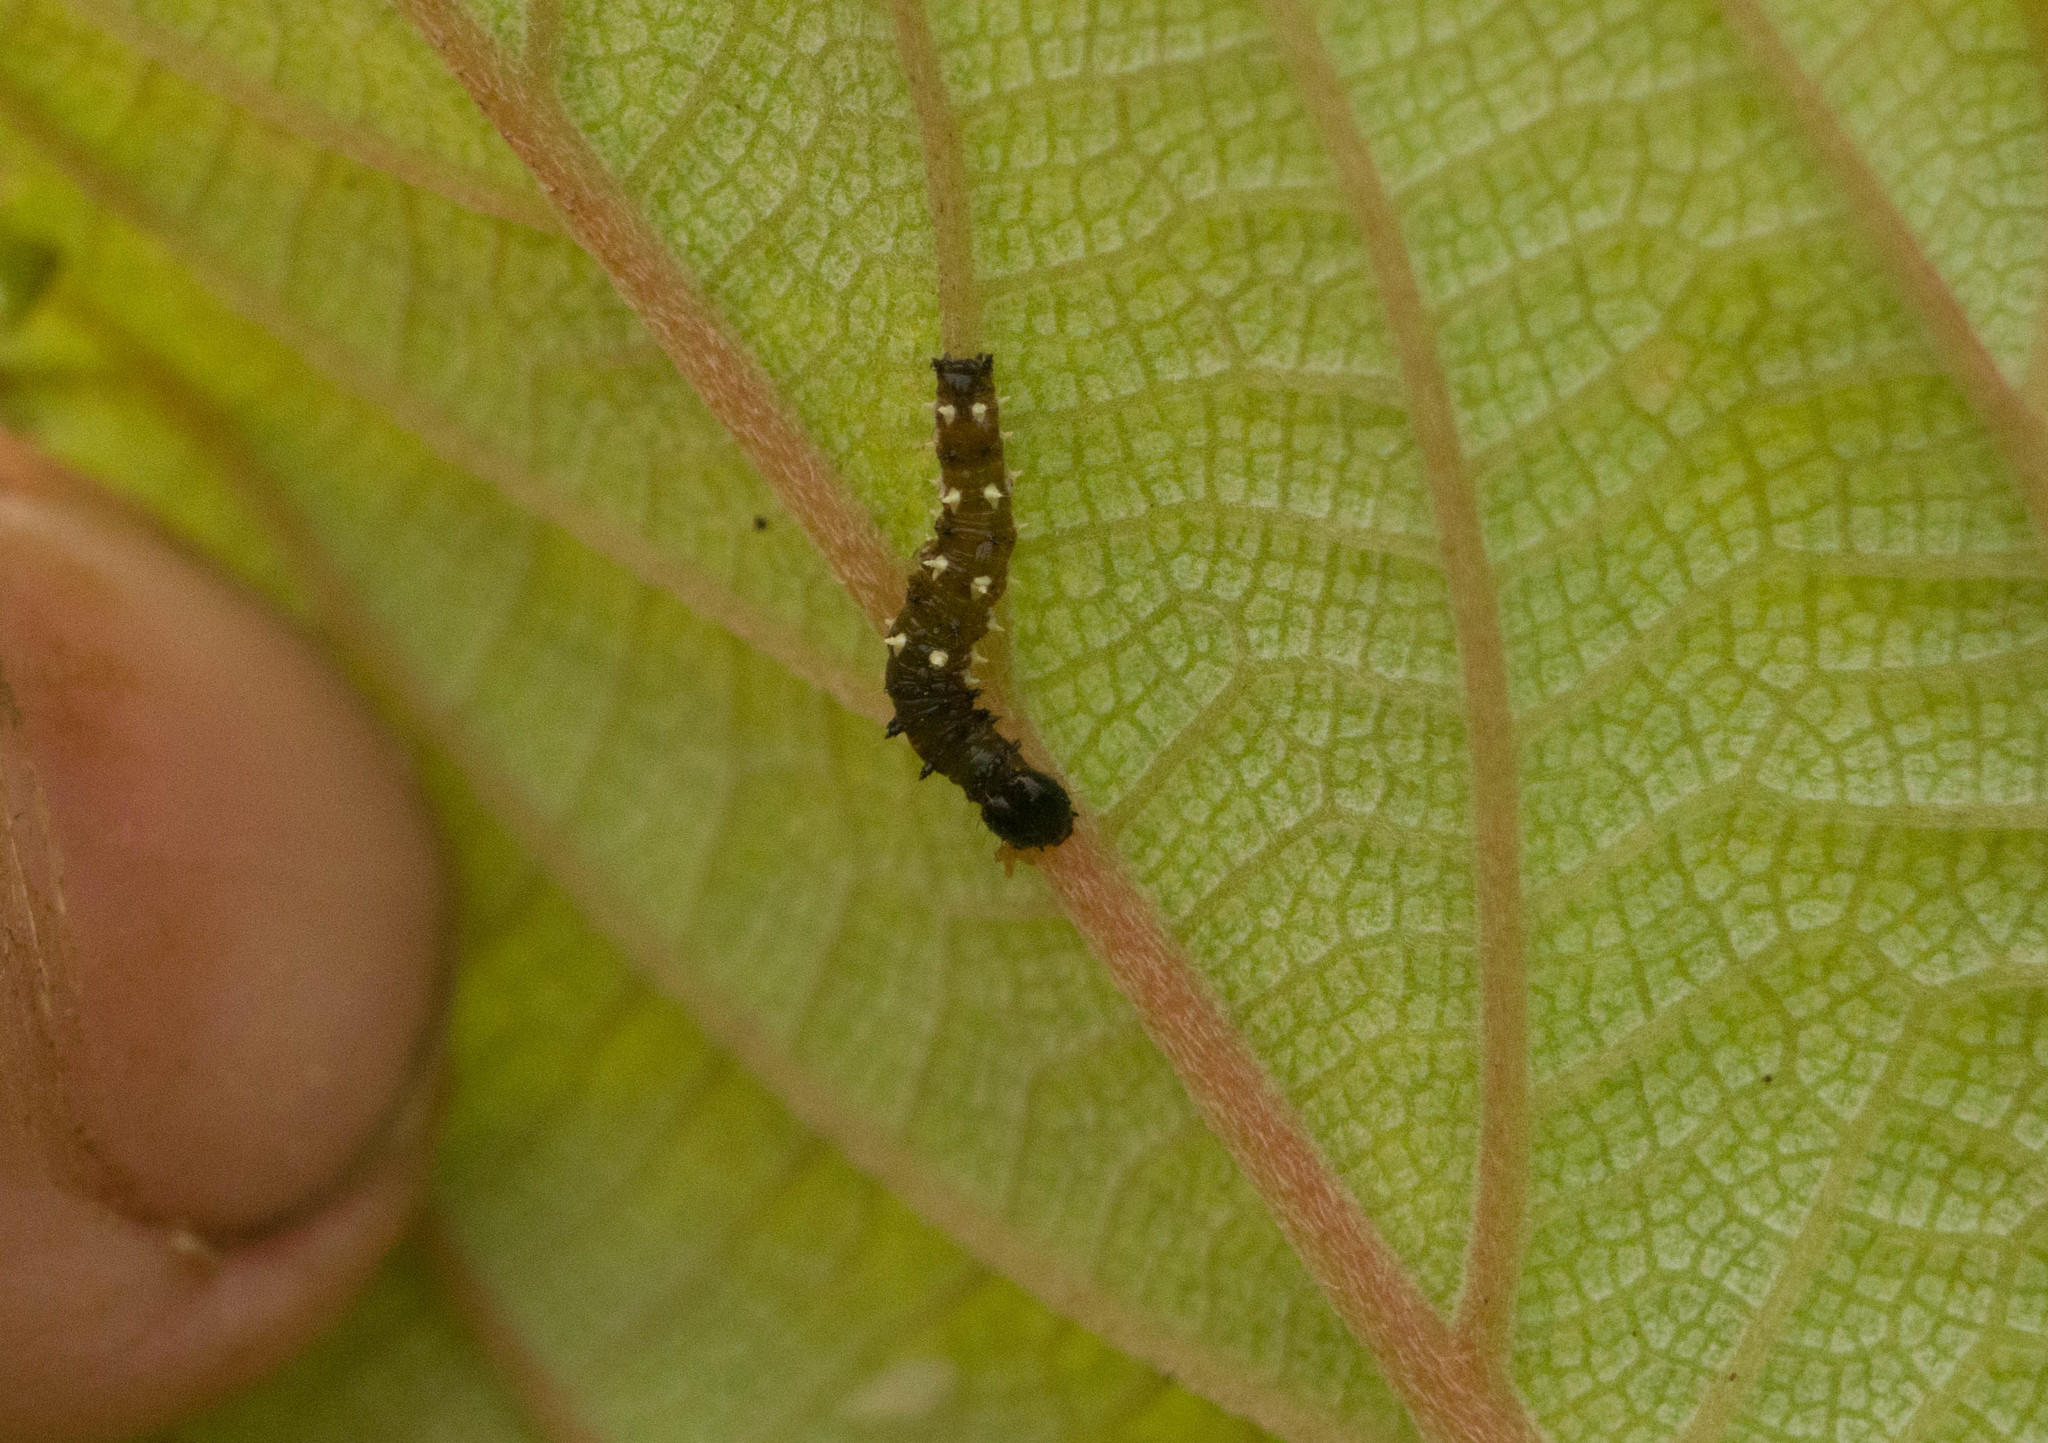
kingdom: Animalia
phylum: Arthropoda
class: Insecta
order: Lepidoptera
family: Nymphalidae
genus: Vanessa
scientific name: Vanessa tameamea
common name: Kamehameha lady
